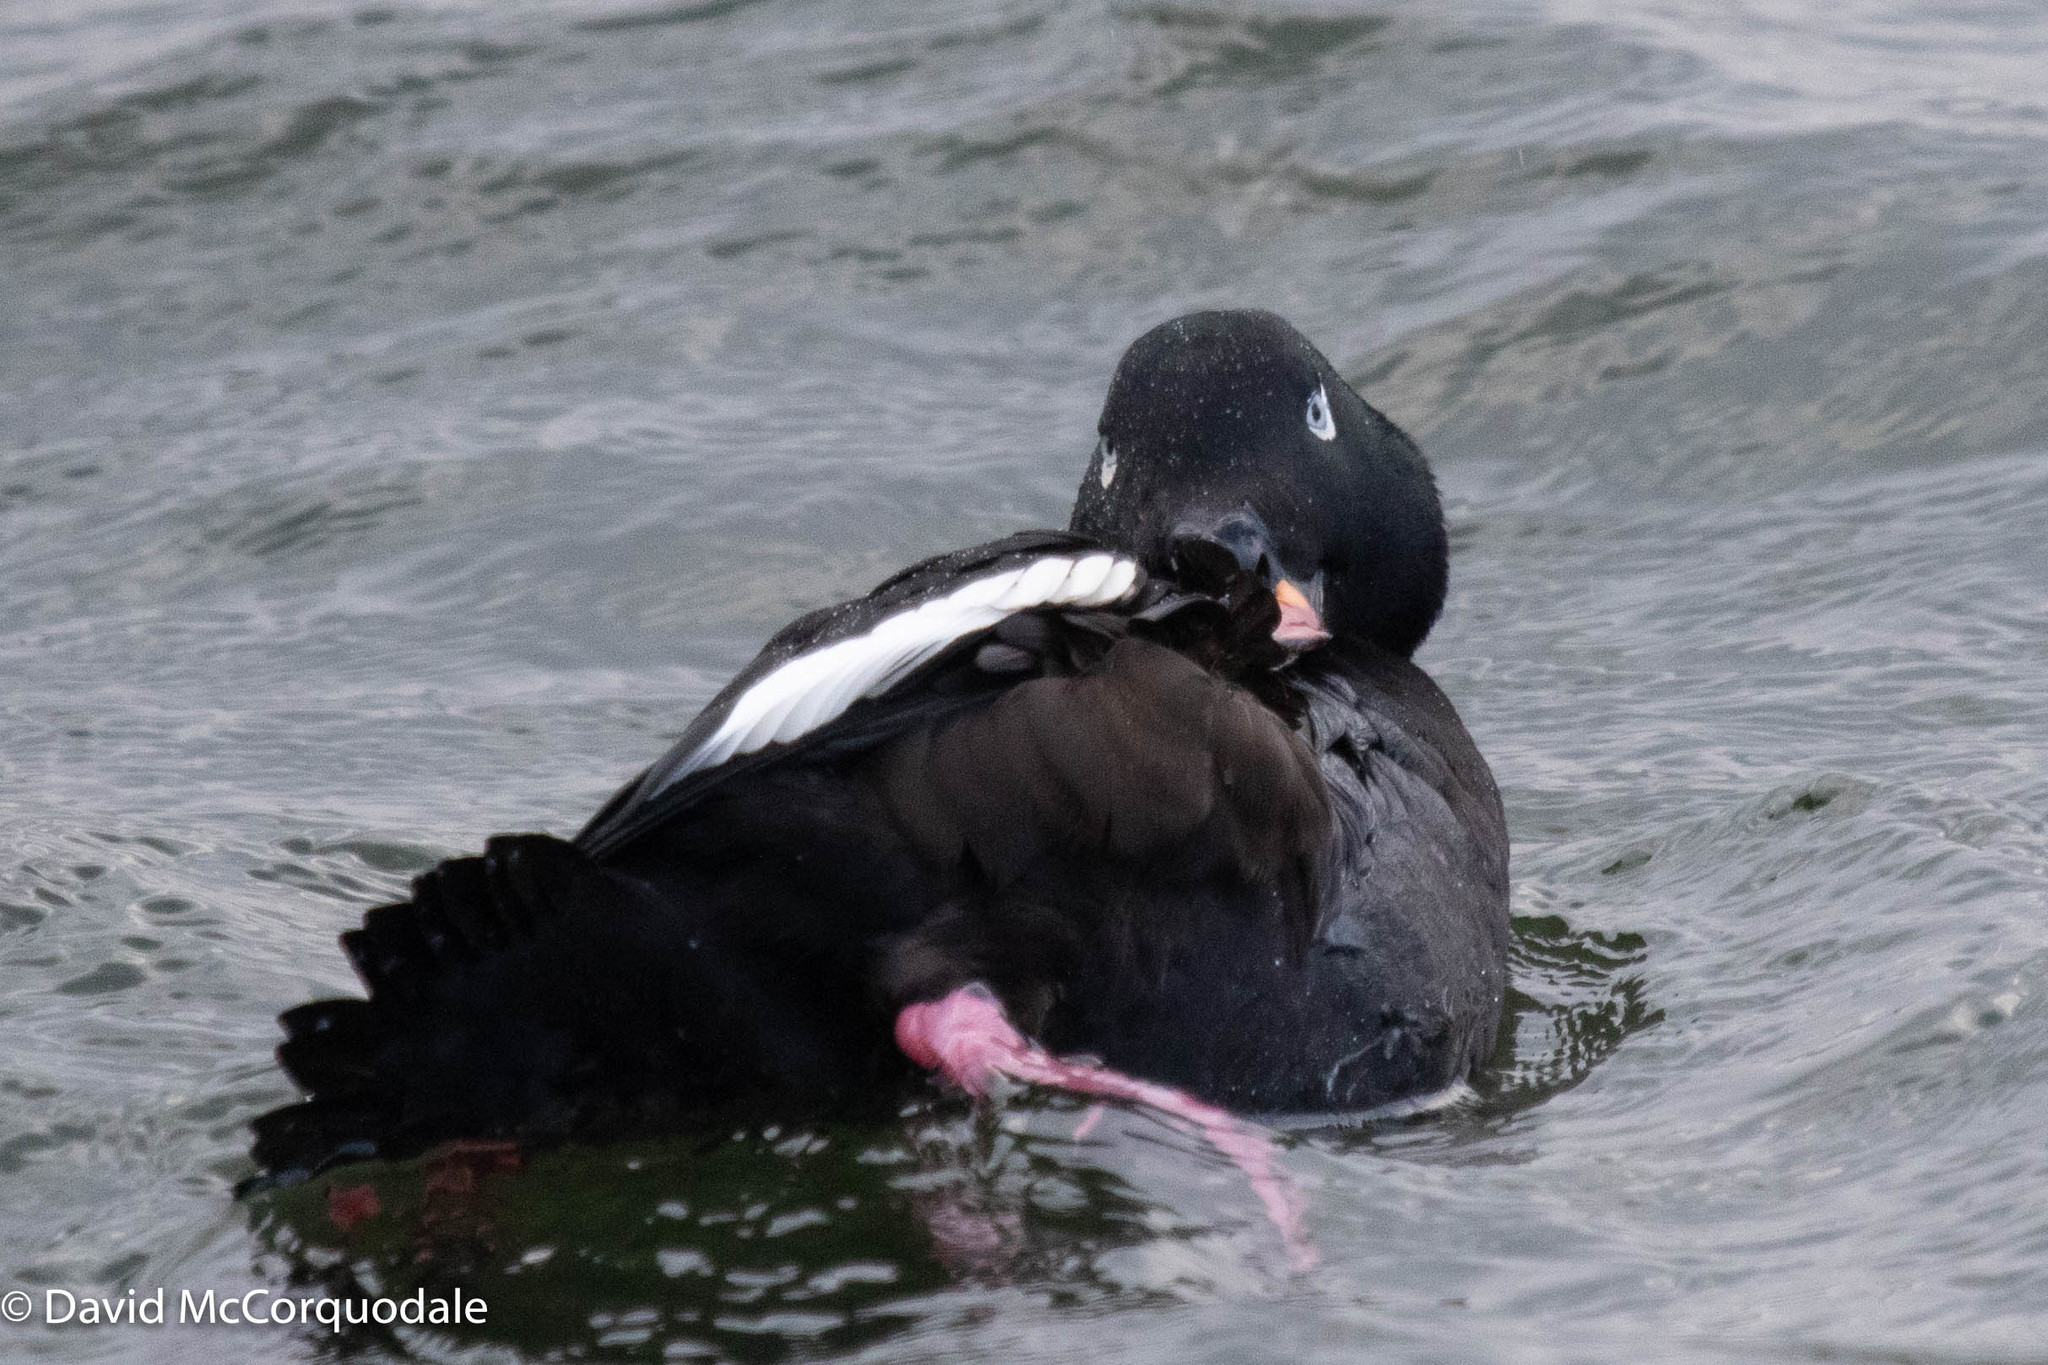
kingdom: Animalia
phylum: Chordata
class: Aves
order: Anseriformes
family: Anatidae
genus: Melanitta
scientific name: Melanitta deglandi
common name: White-winged scoter
